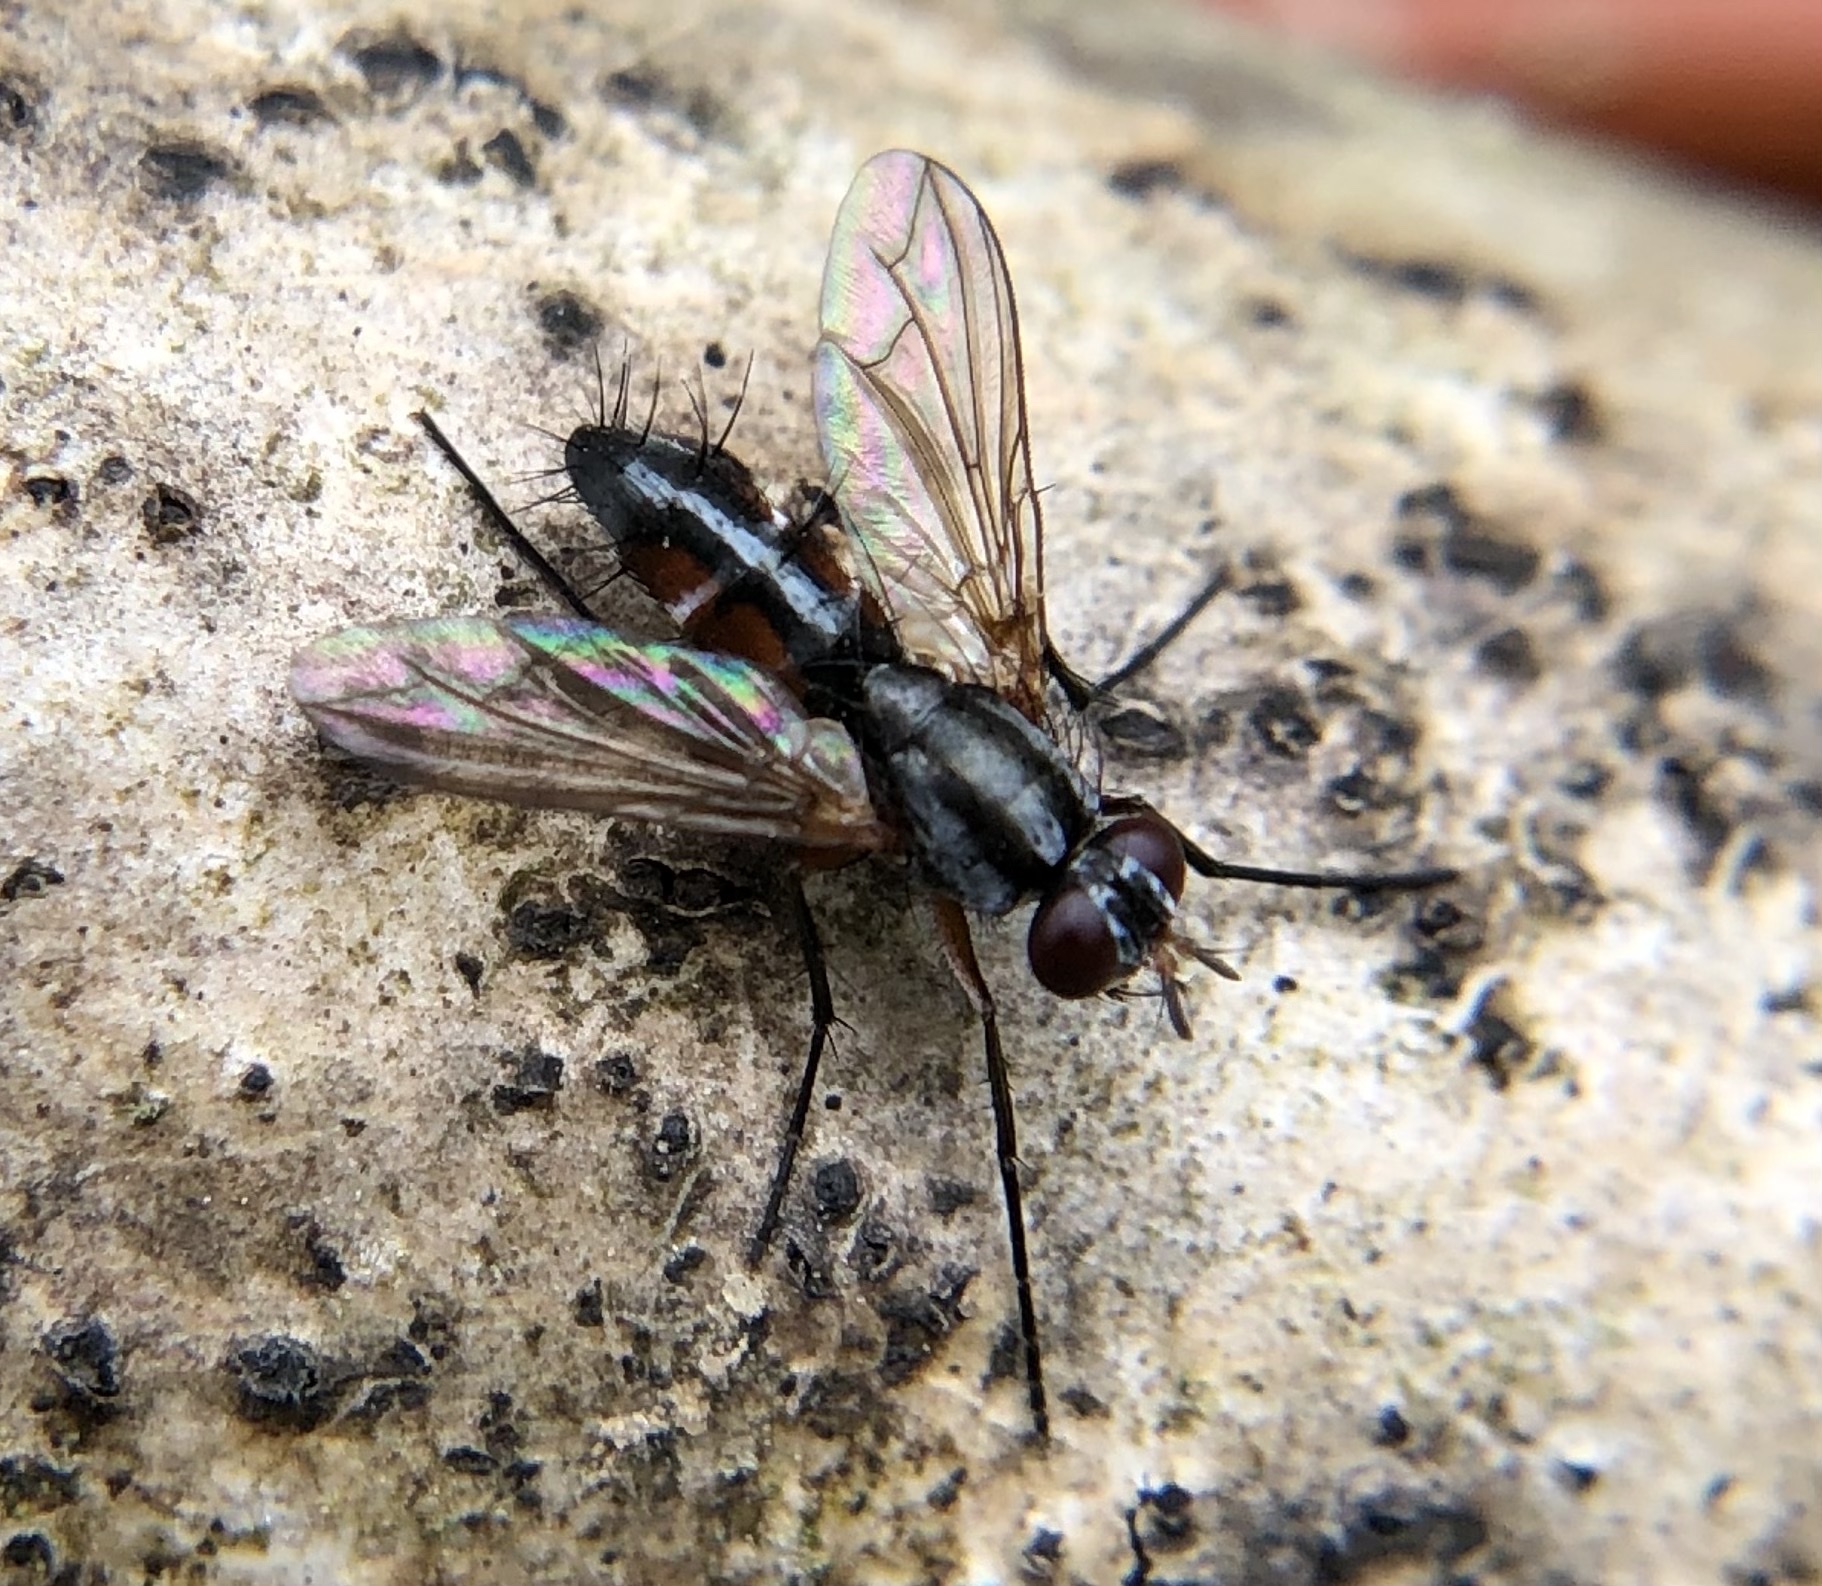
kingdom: Animalia
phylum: Arthropoda
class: Insecta
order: Diptera
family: Tachinidae
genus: Mintho
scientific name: Mintho rufiventris
